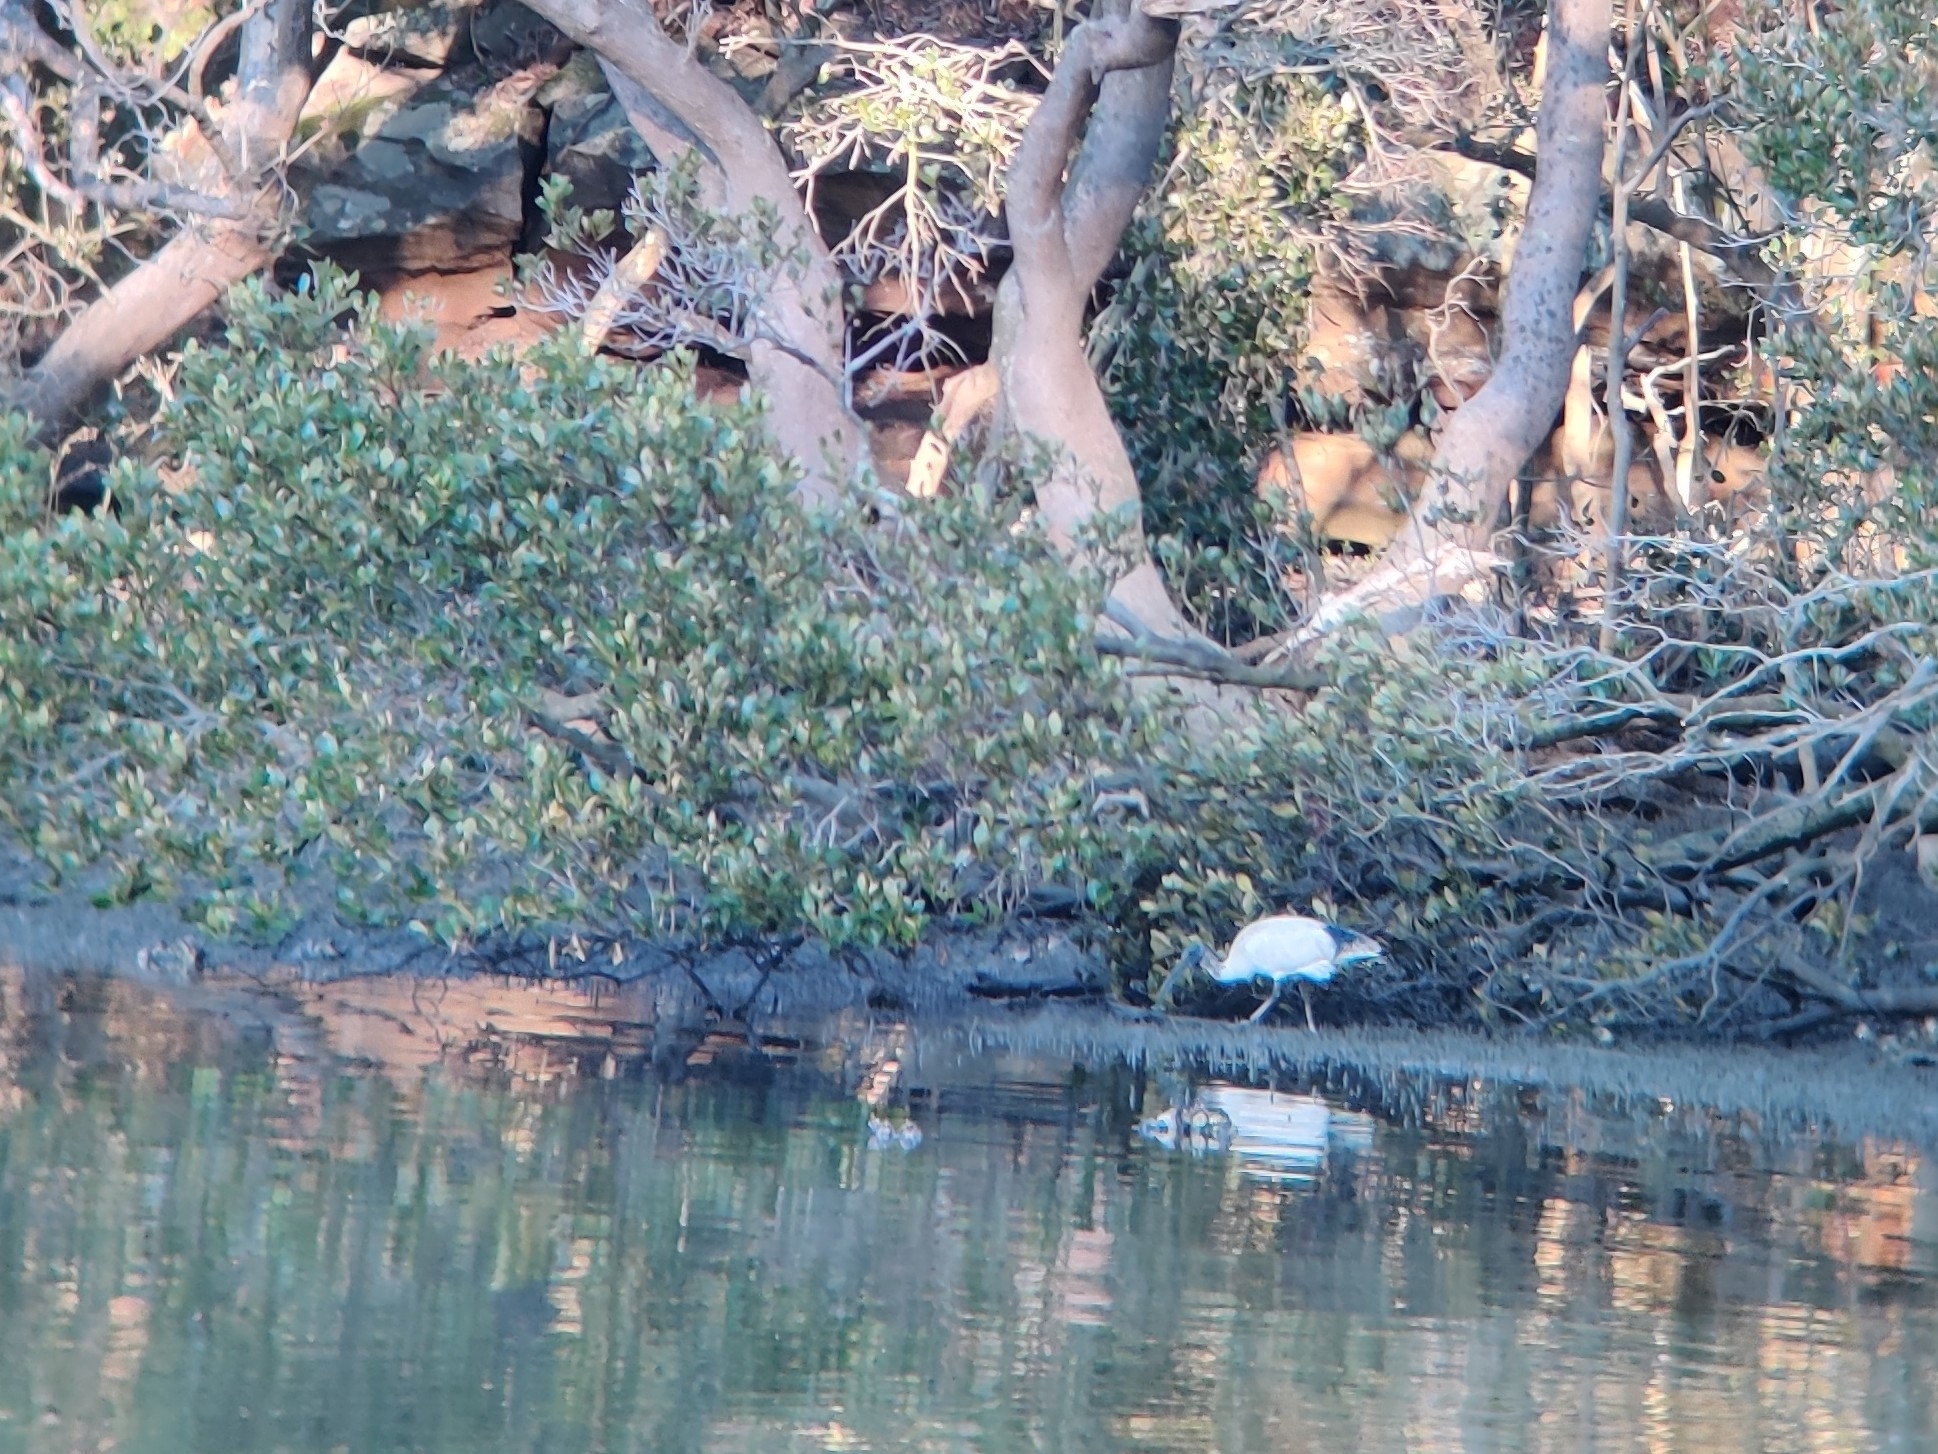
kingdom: Animalia
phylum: Chordata
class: Aves
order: Pelecaniformes
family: Threskiornithidae
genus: Threskiornis
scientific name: Threskiornis molucca
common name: Australian white ibis
